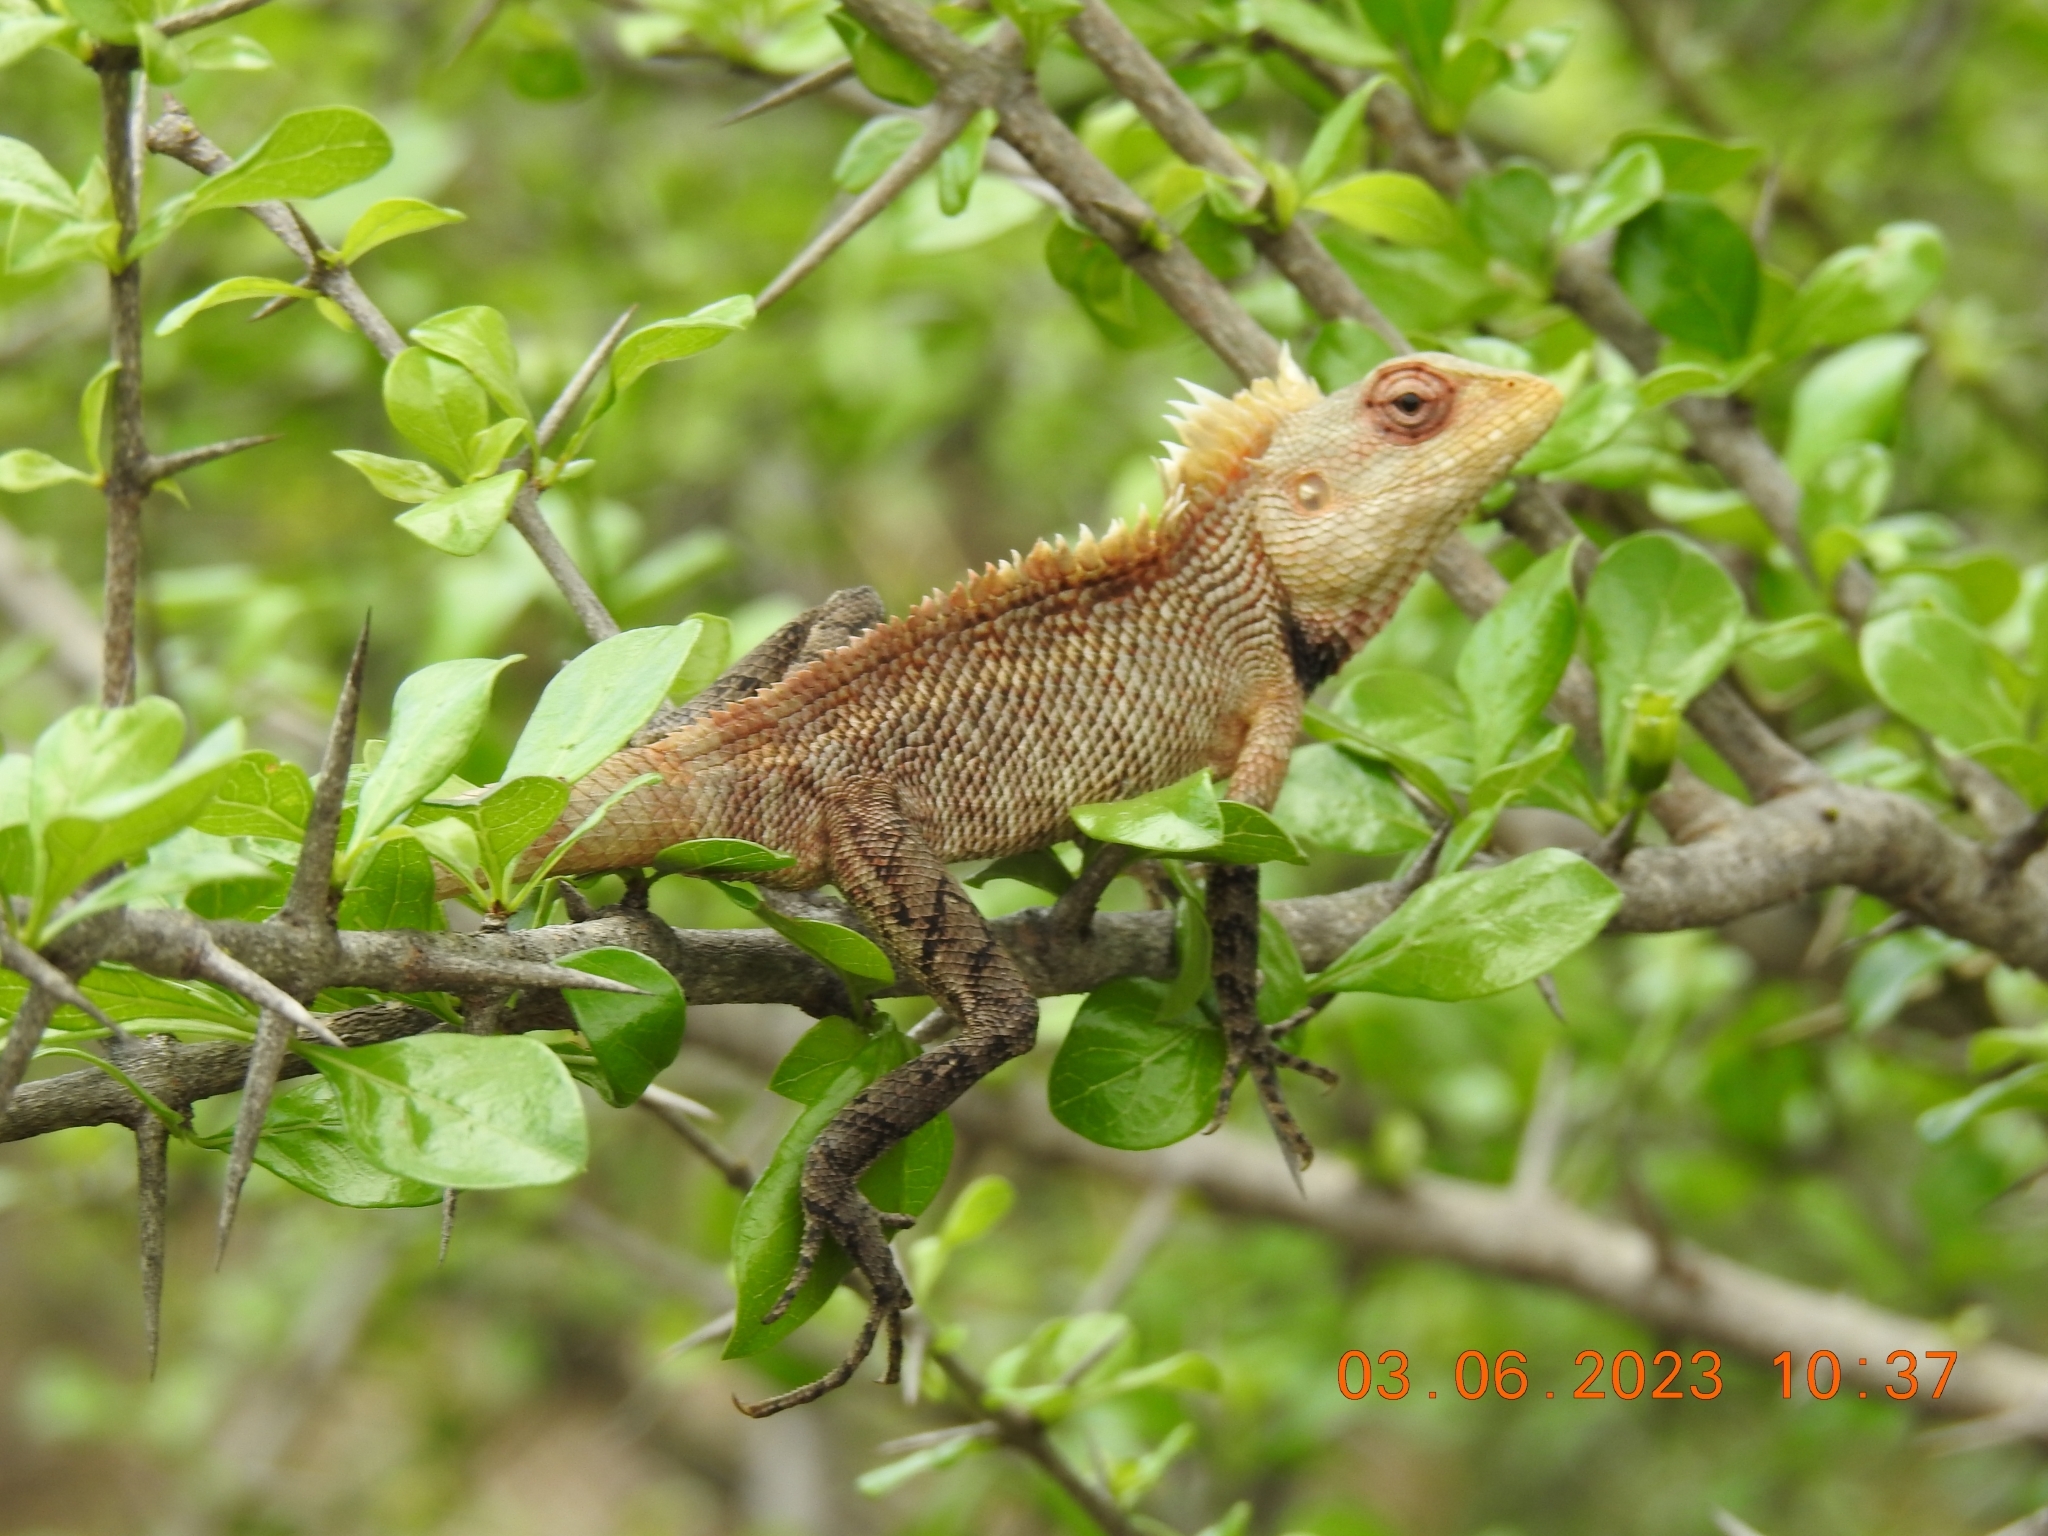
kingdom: Animalia
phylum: Chordata
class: Squamata
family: Agamidae
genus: Calotes
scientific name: Calotes versicolor
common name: Oriental garden lizard
